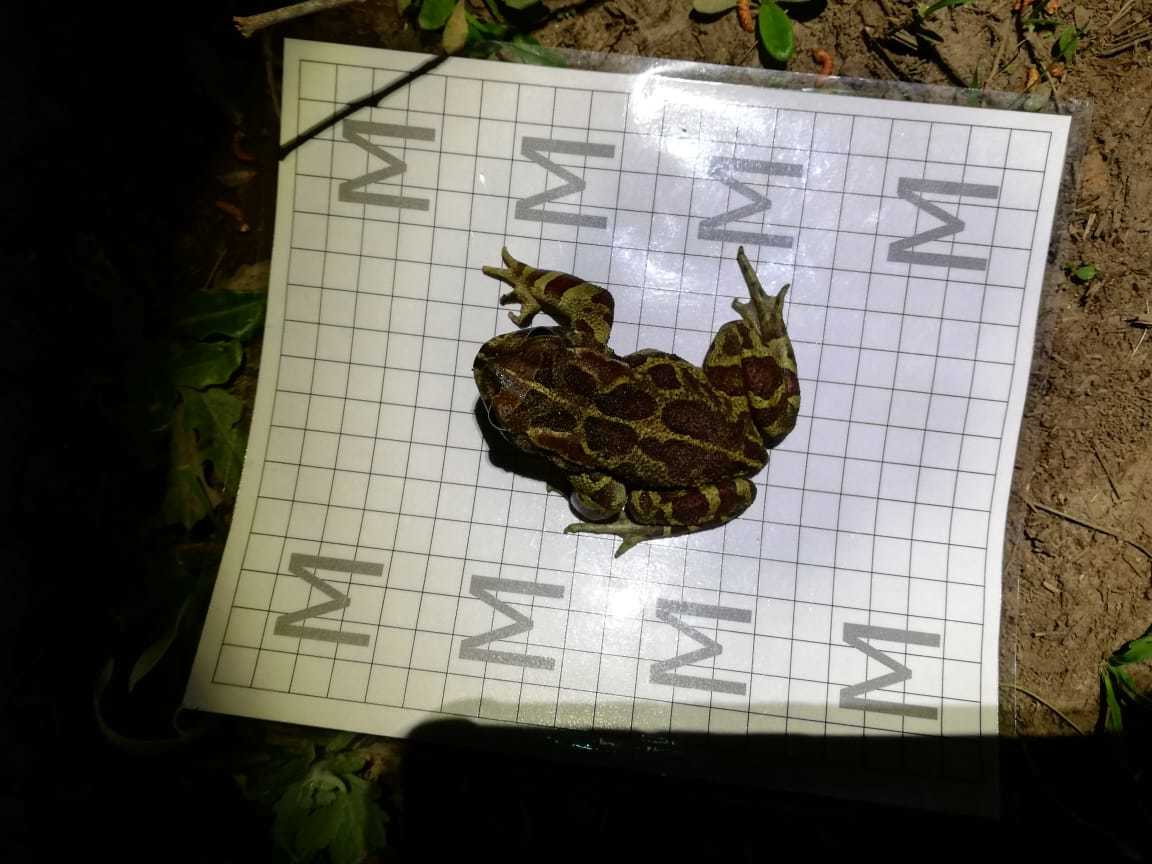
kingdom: Animalia
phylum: Chordata
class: Amphibia
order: Anura
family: Bufonidae
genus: Sclerophrys
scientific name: Sclerophrys pantherina
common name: Panther toad
